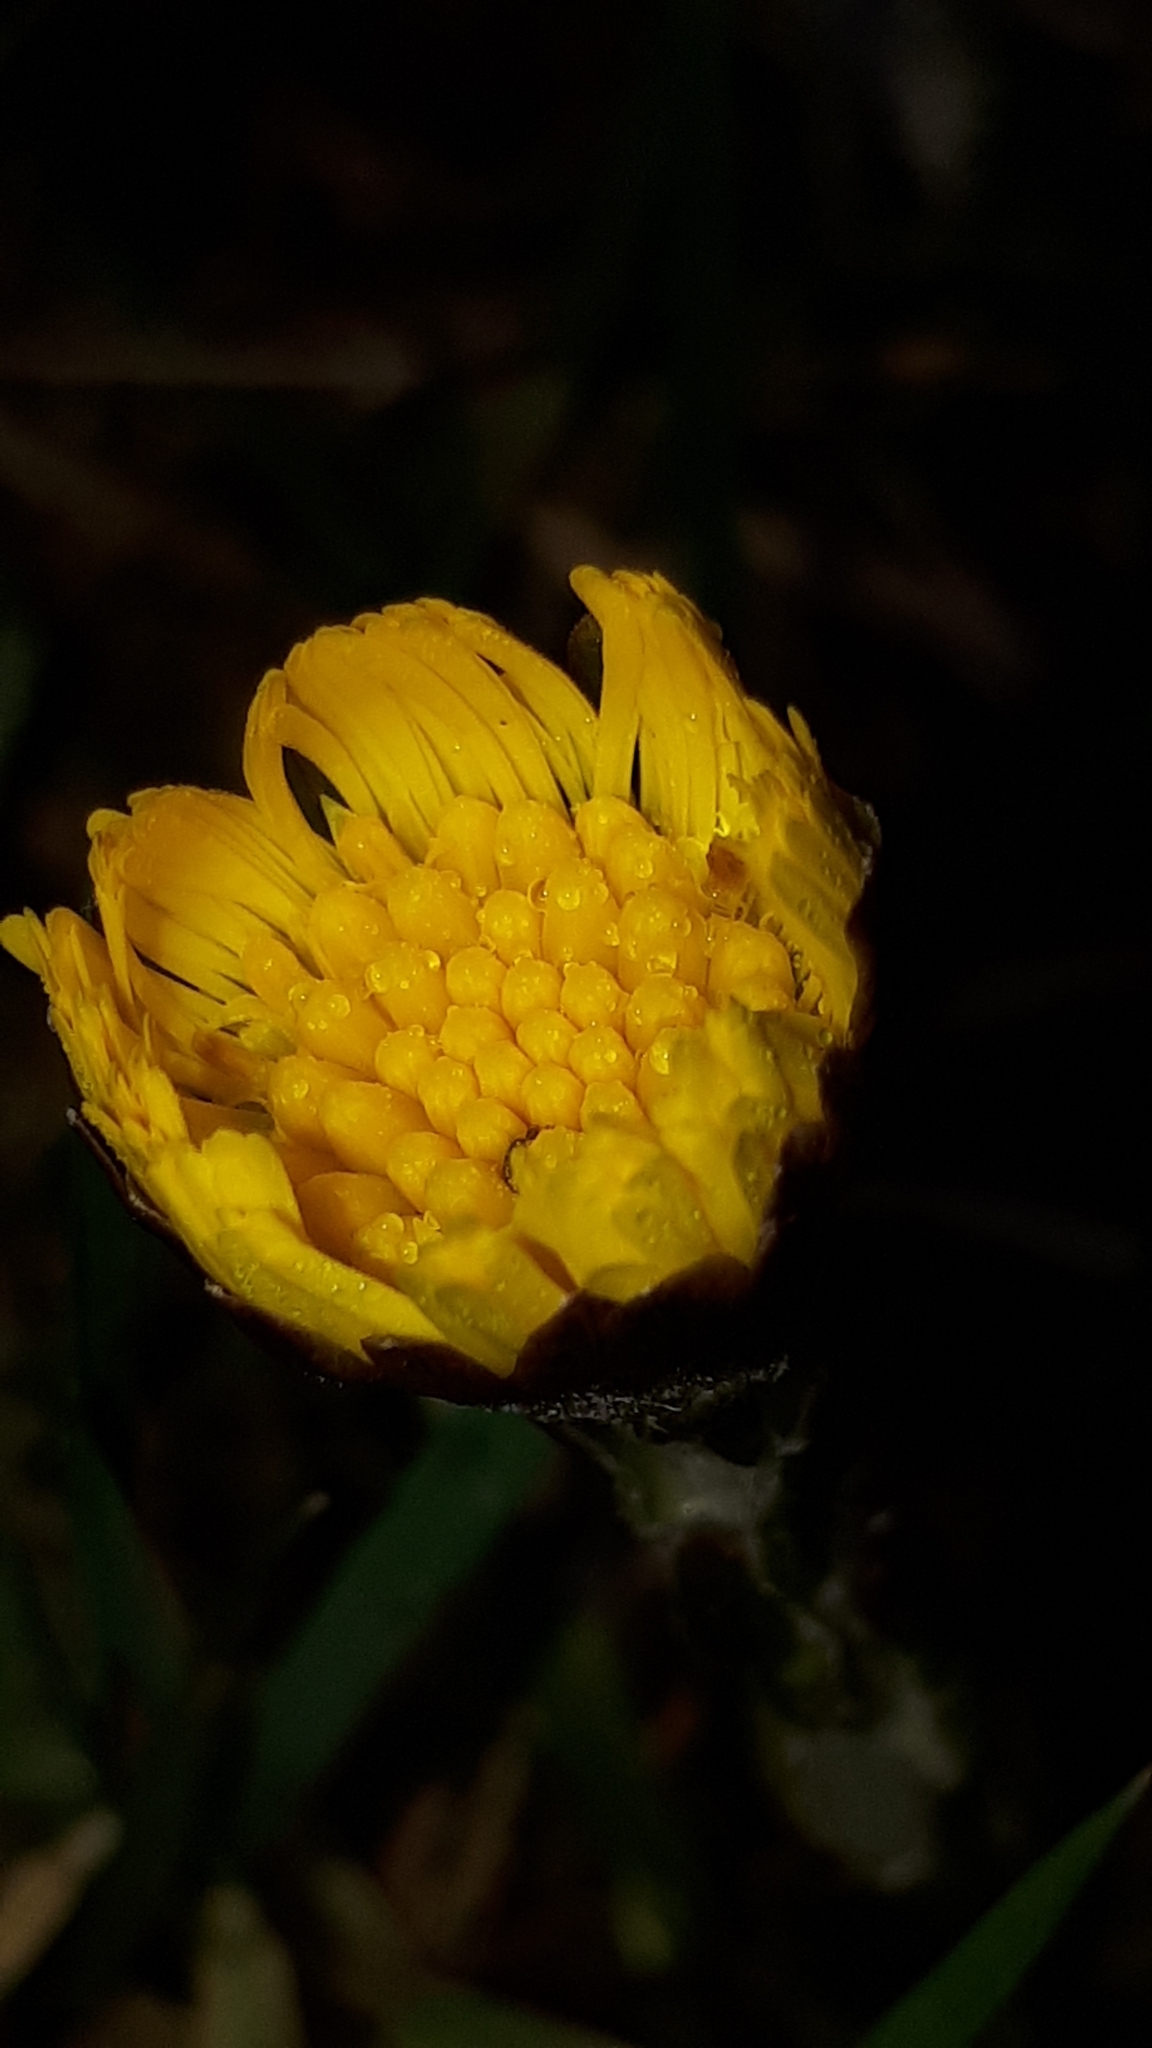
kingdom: Plantae
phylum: Tracheophyta
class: Magnoliopsida
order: Asterales
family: Asteraceae
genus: Tussilago
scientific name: Tussilago farfara
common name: Coltsfoot
